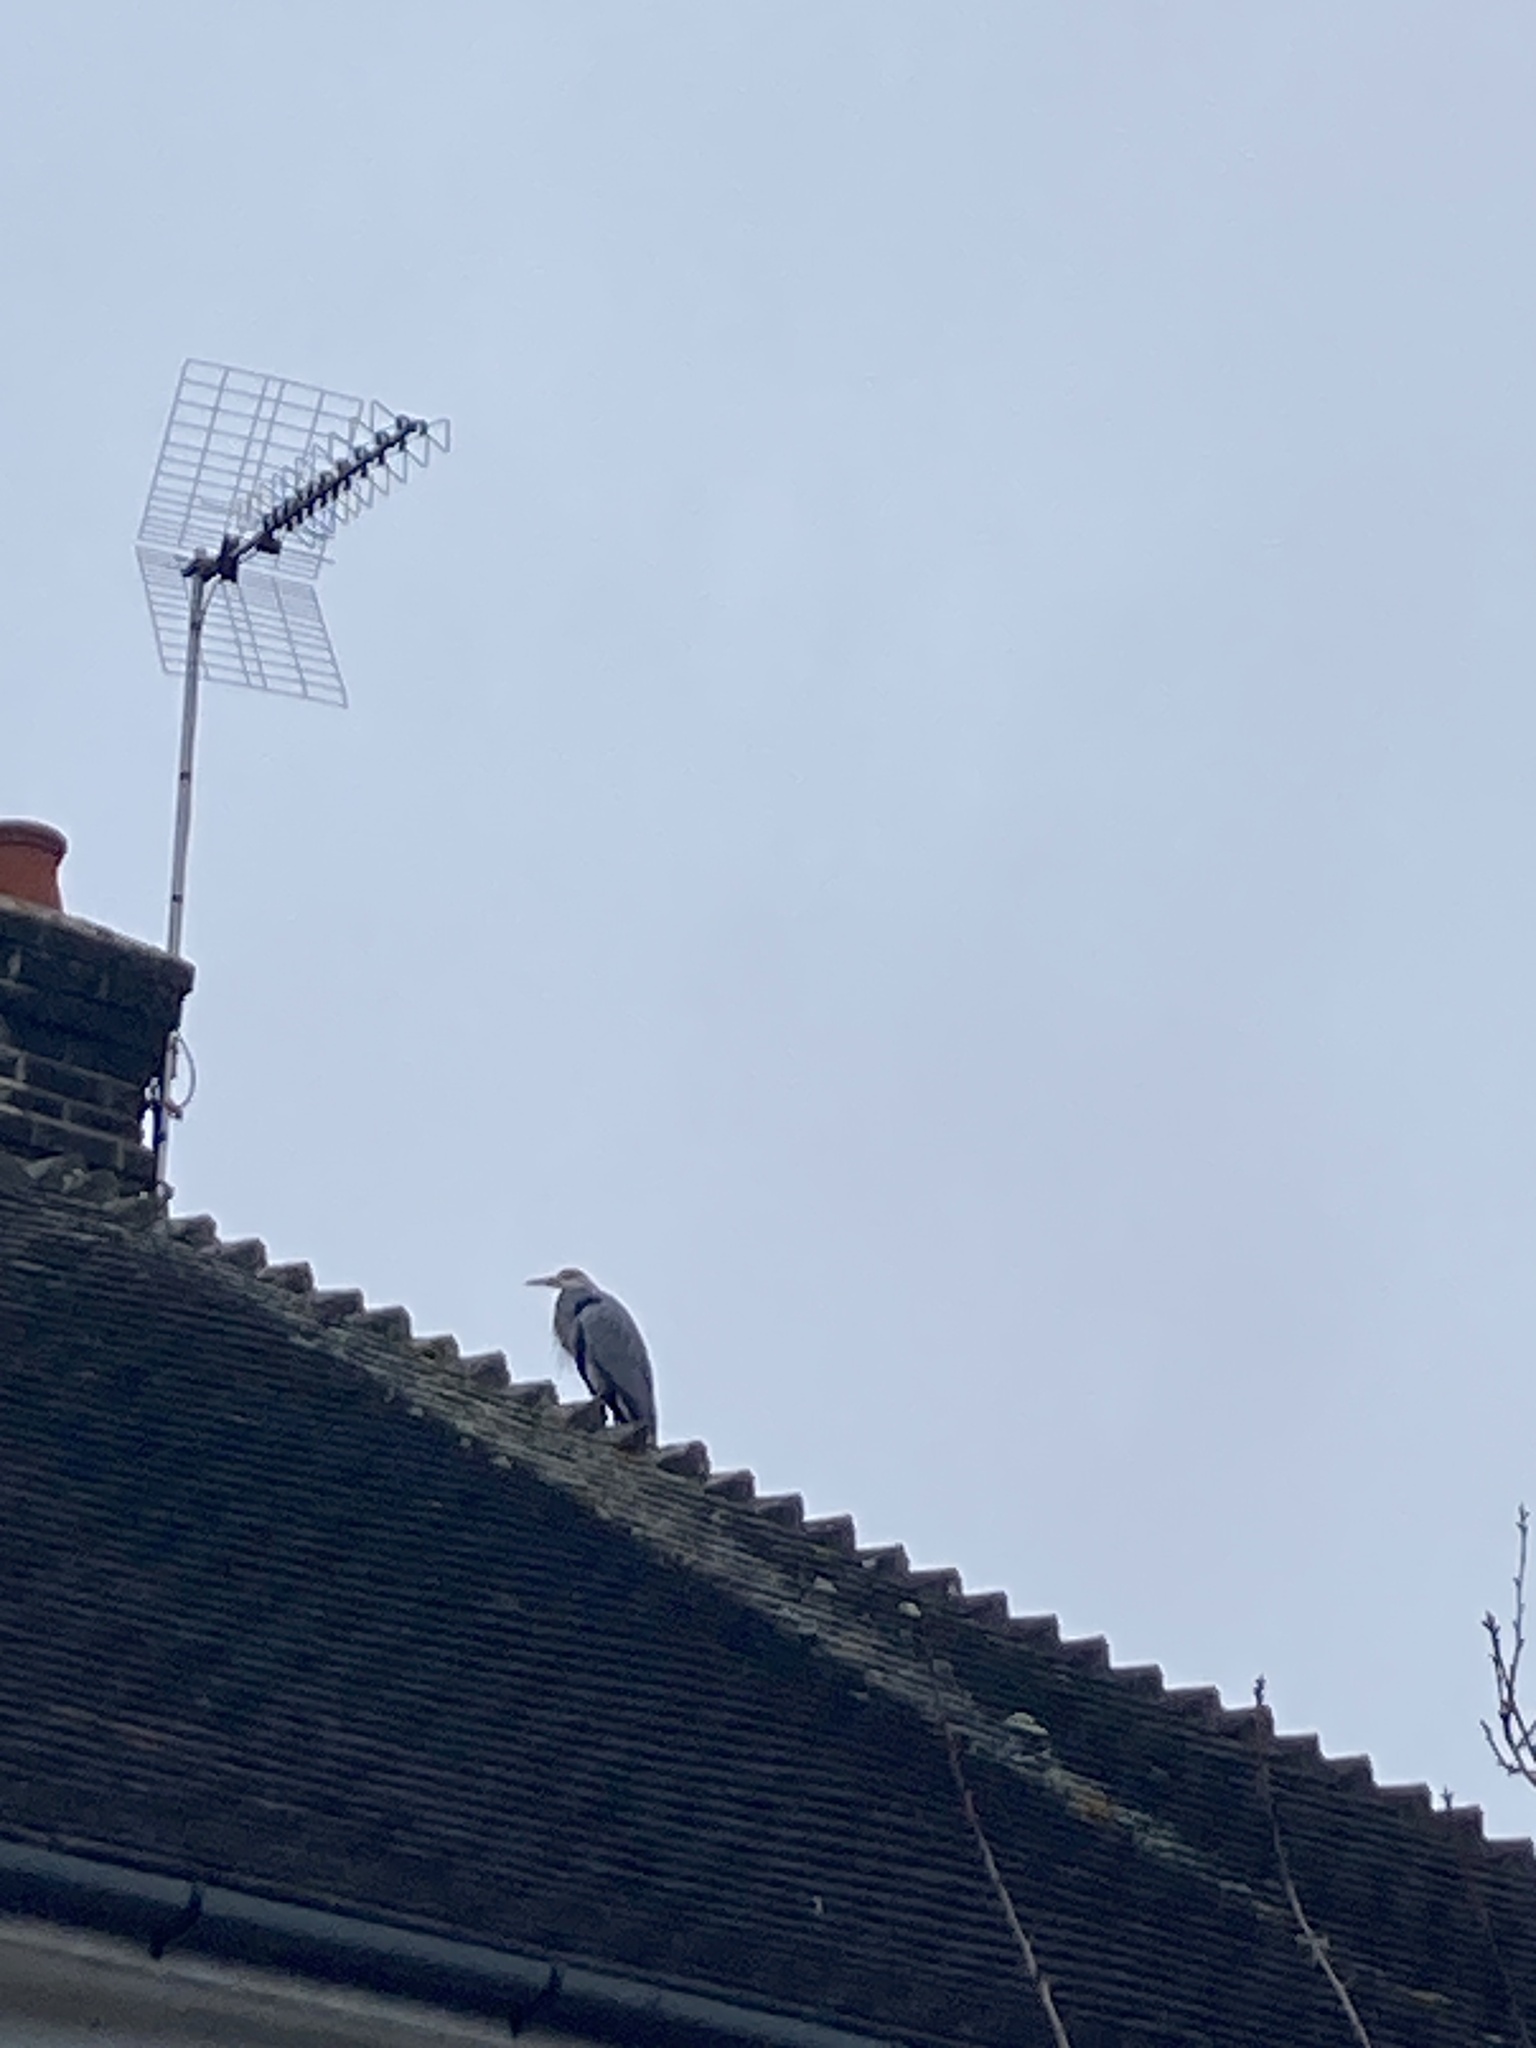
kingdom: Animalia
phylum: Chordata
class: Aves
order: Pelecaniformes
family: Ardeidae
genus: Ardea
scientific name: Ardea cinerea
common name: Grey heron
